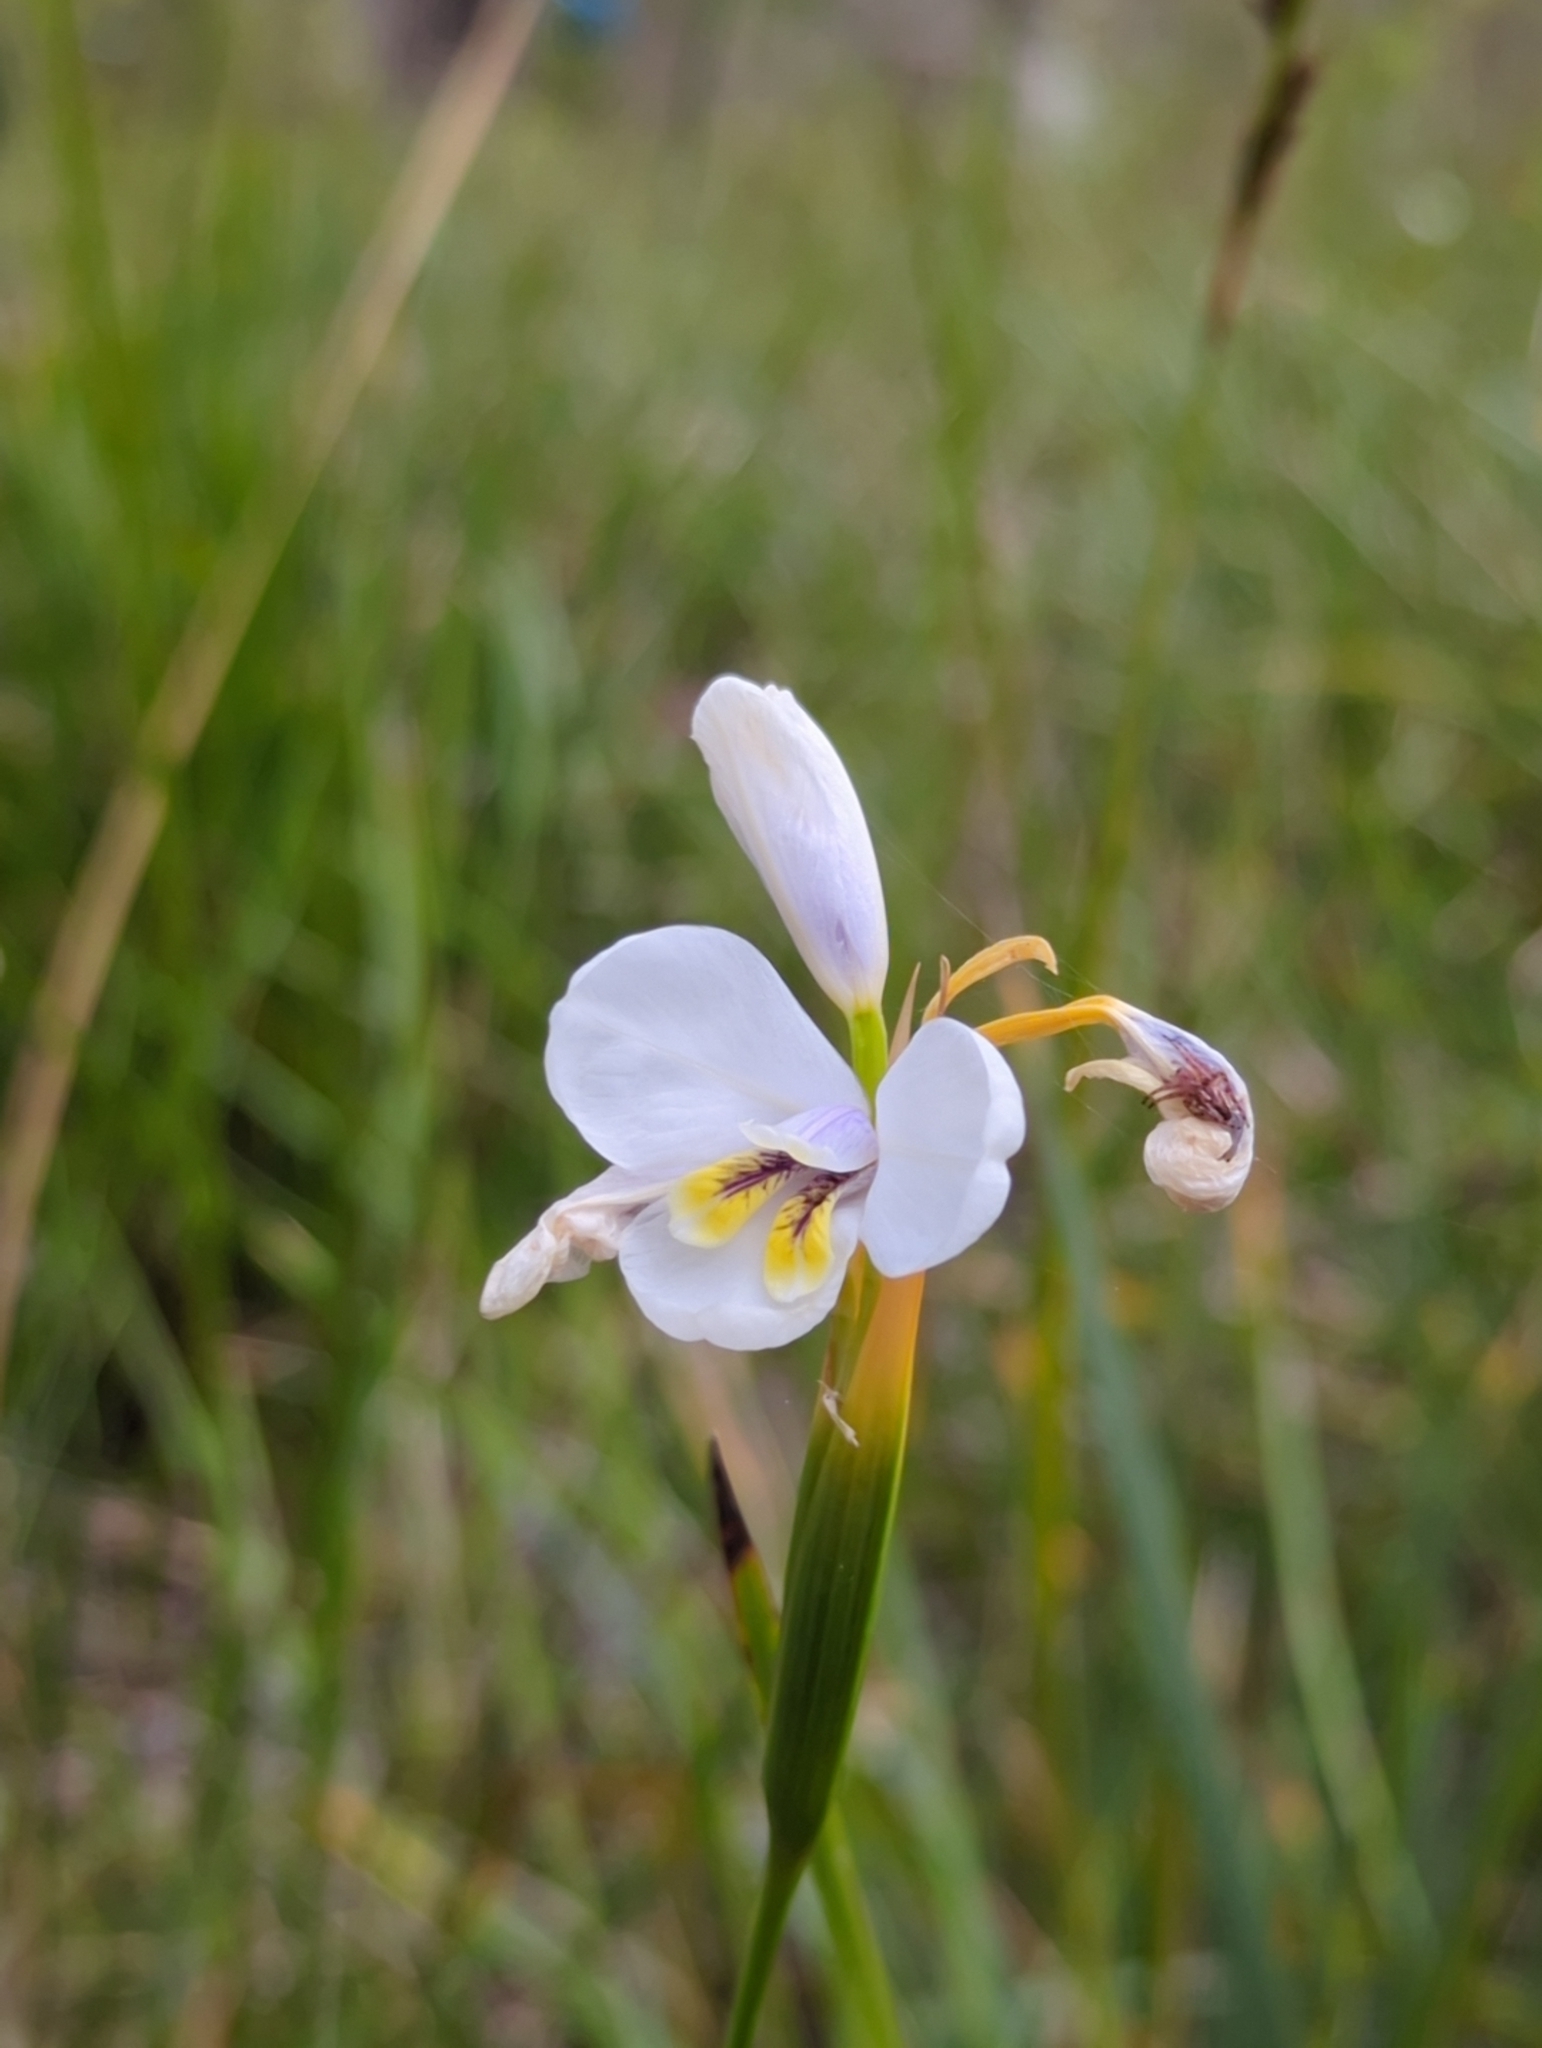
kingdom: Plantae
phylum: Tracheophyta
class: Liliopsida
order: Asparagales
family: Iridaceae
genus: Diplarrena
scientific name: Diplarrena moraea
